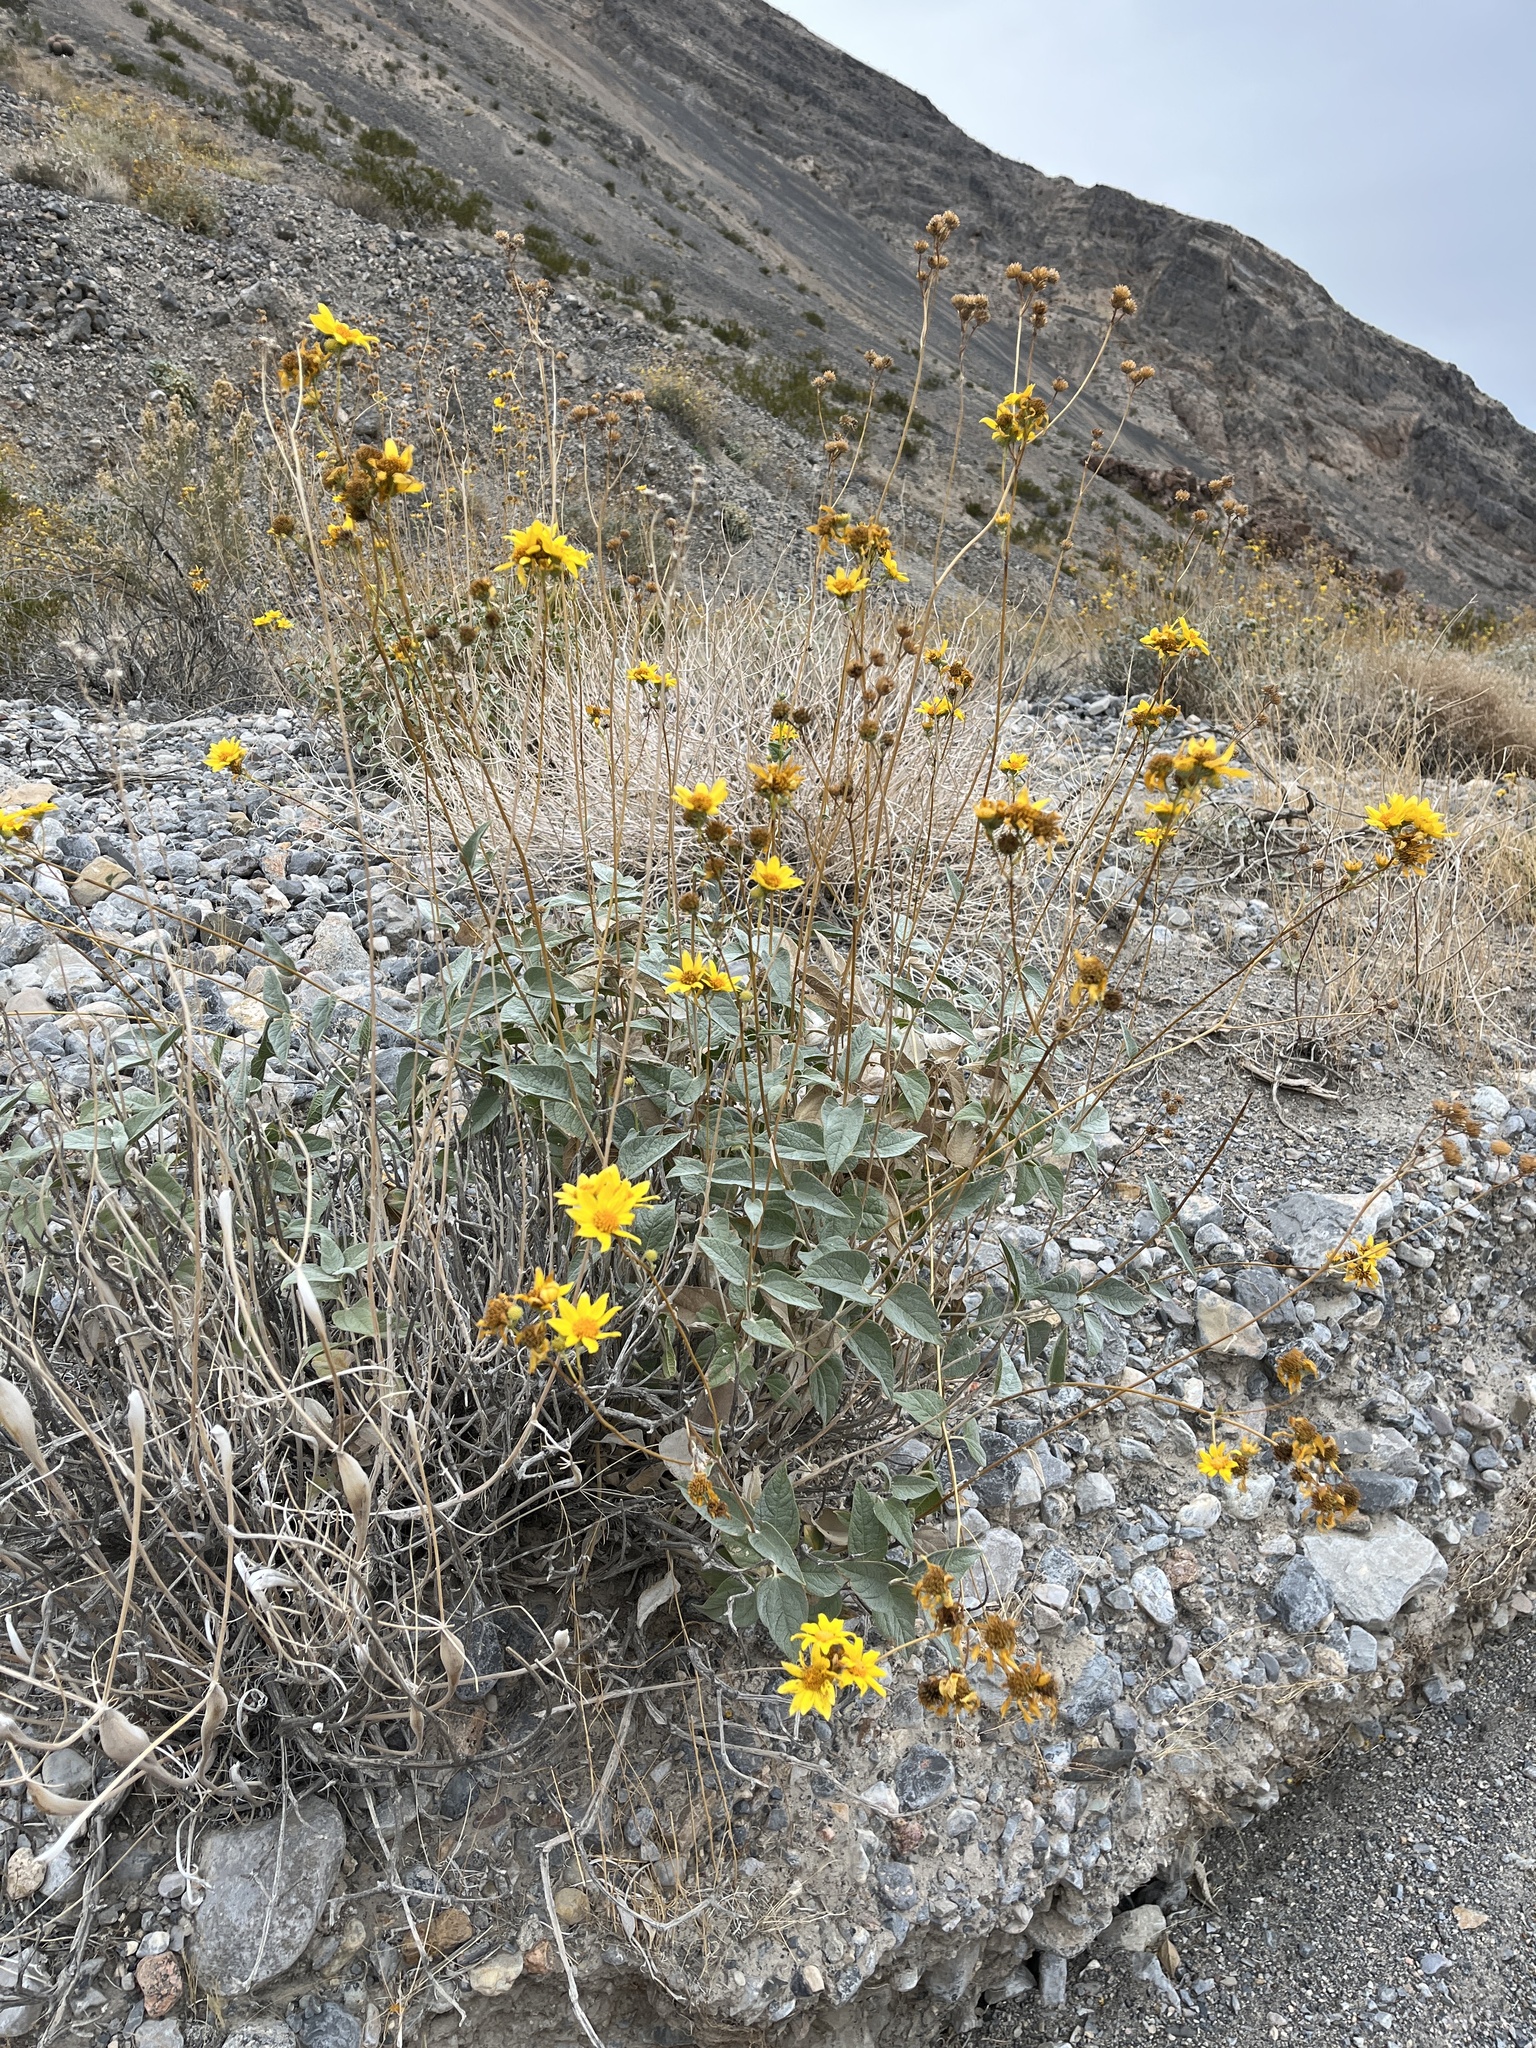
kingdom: Plantae
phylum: Tracheophyta
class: Magnoliopsida
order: Asterales
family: Asteraceae
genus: Bahiopsis
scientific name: Bahiopsis reticulata
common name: Death valley goldeneye
